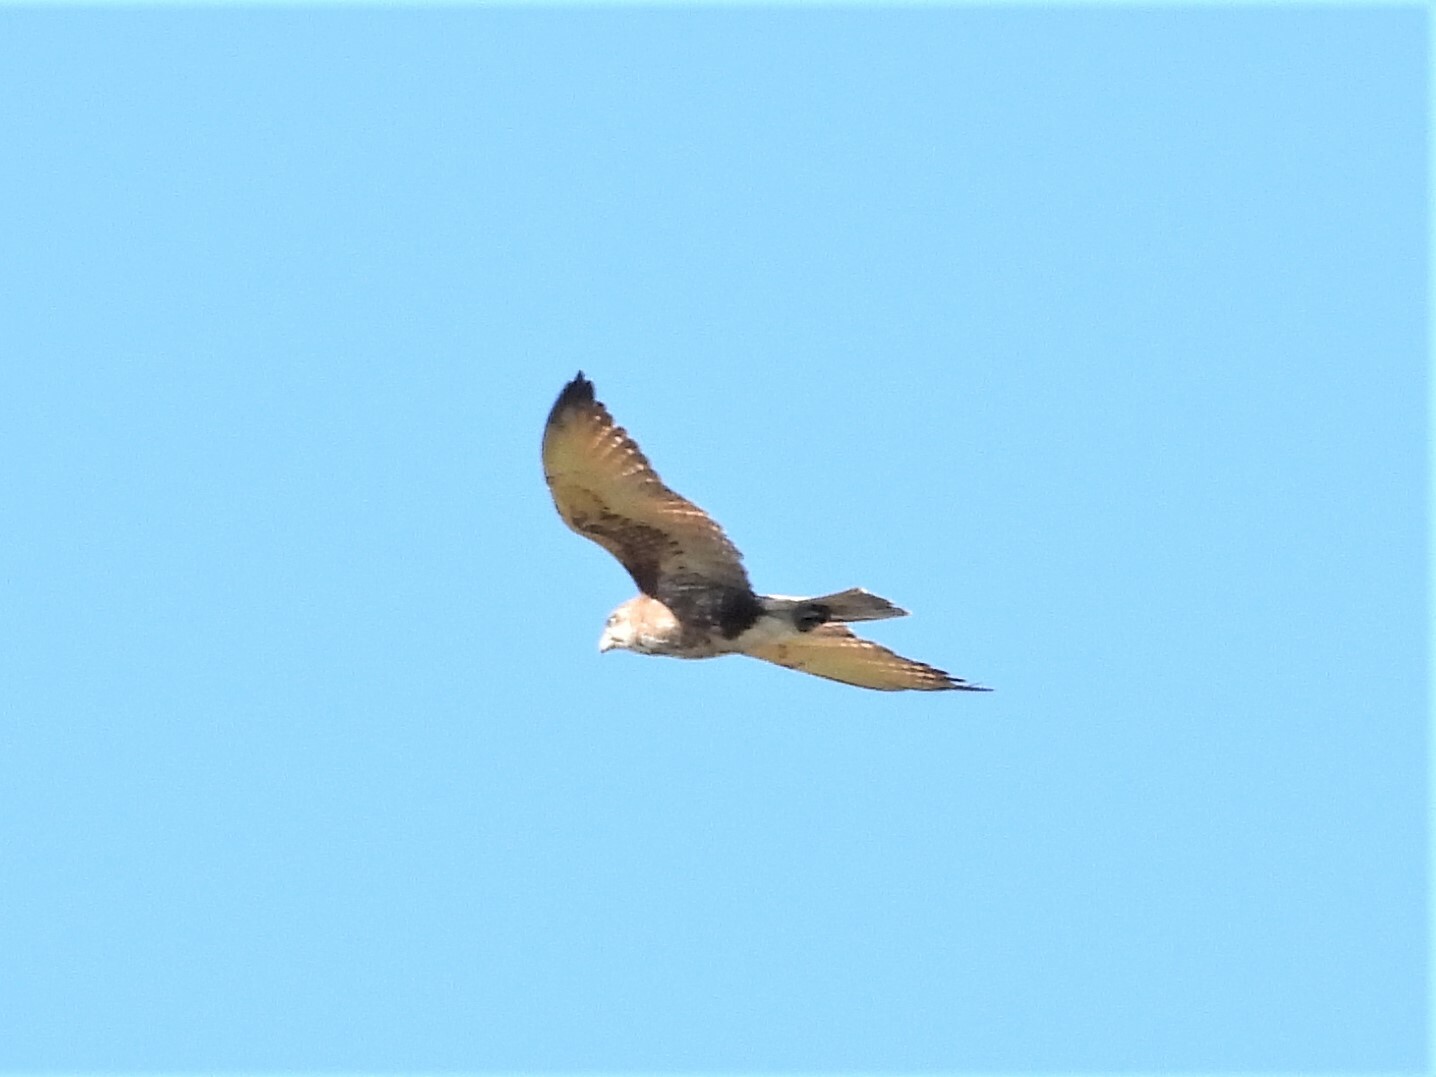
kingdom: Animalia
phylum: Chordata
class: Aves
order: Falconiformes
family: Falconidae
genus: Falco
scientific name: Falco berigora
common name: Brown falcon
